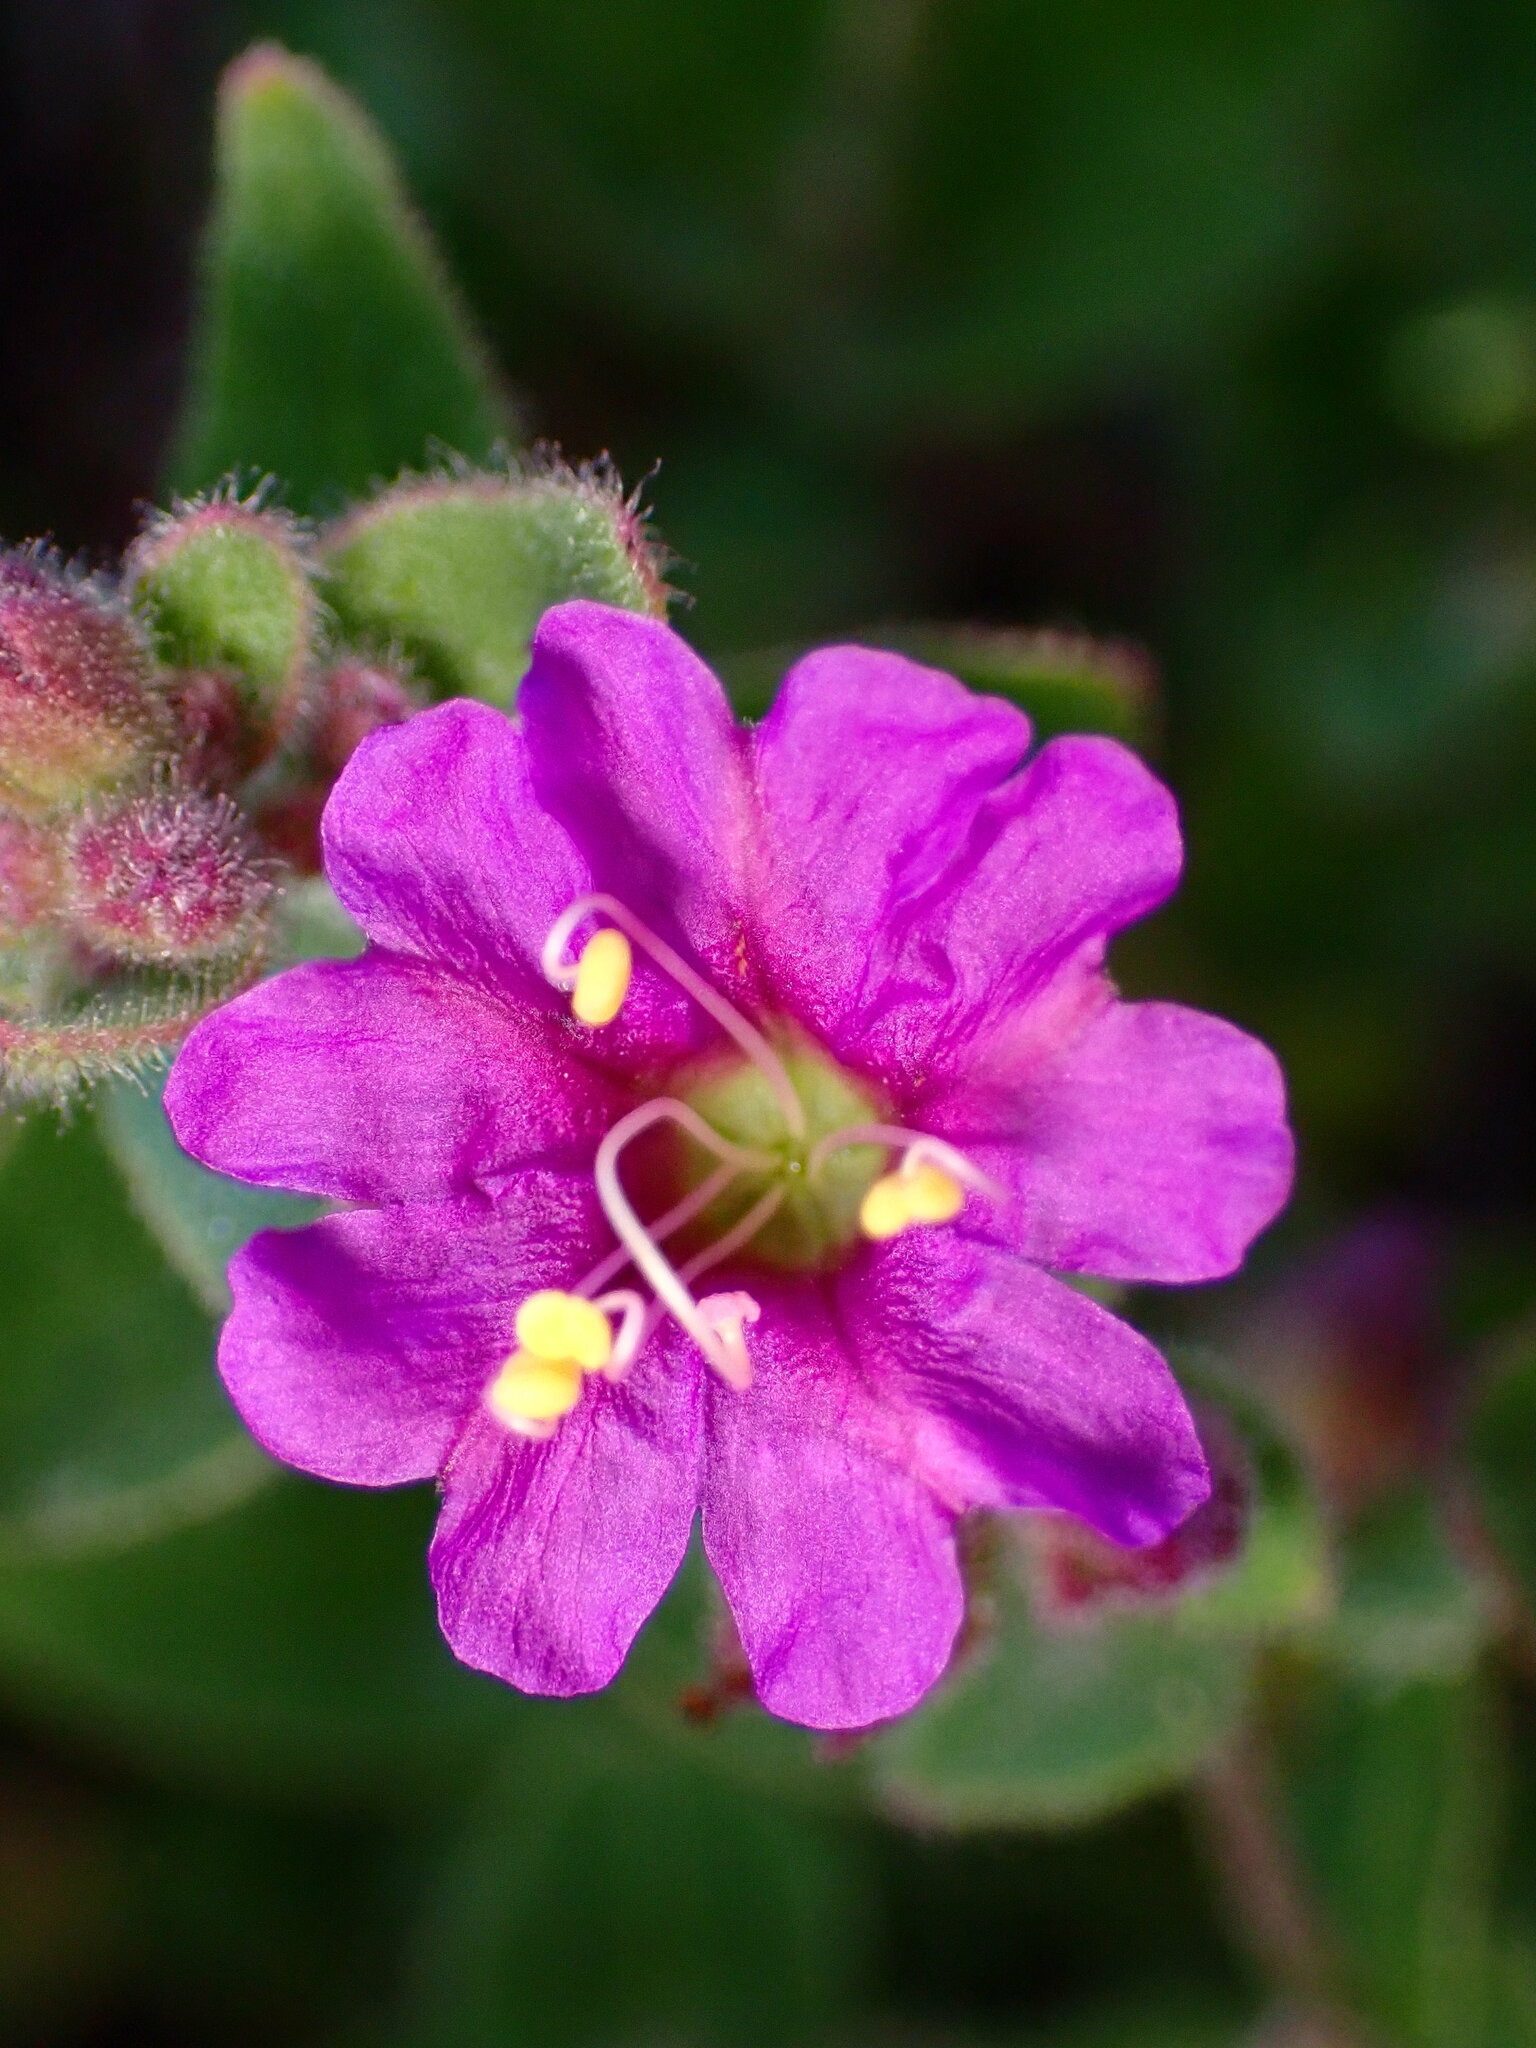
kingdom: Plantae
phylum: Tracheophyta
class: Magnoliopsida
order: Caryophyllales
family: Nyctaginaceae
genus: Mirabilis
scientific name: Mirabilis laevis
